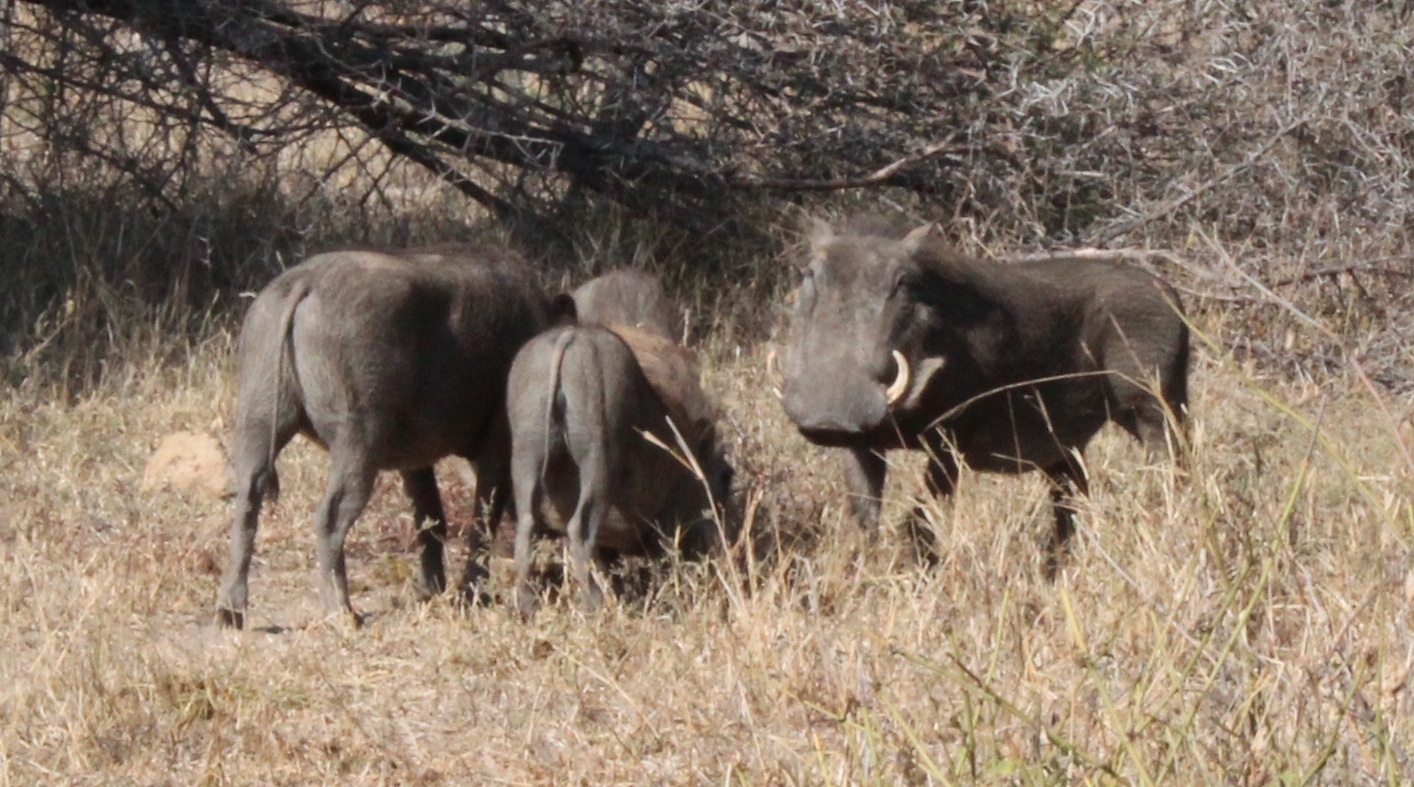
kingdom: Animalia
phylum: Chordata
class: Mammalia
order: Artiodactyla
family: Suidae
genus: Phacochoerus
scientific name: Phacochoerus africanus
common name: Common warthog
